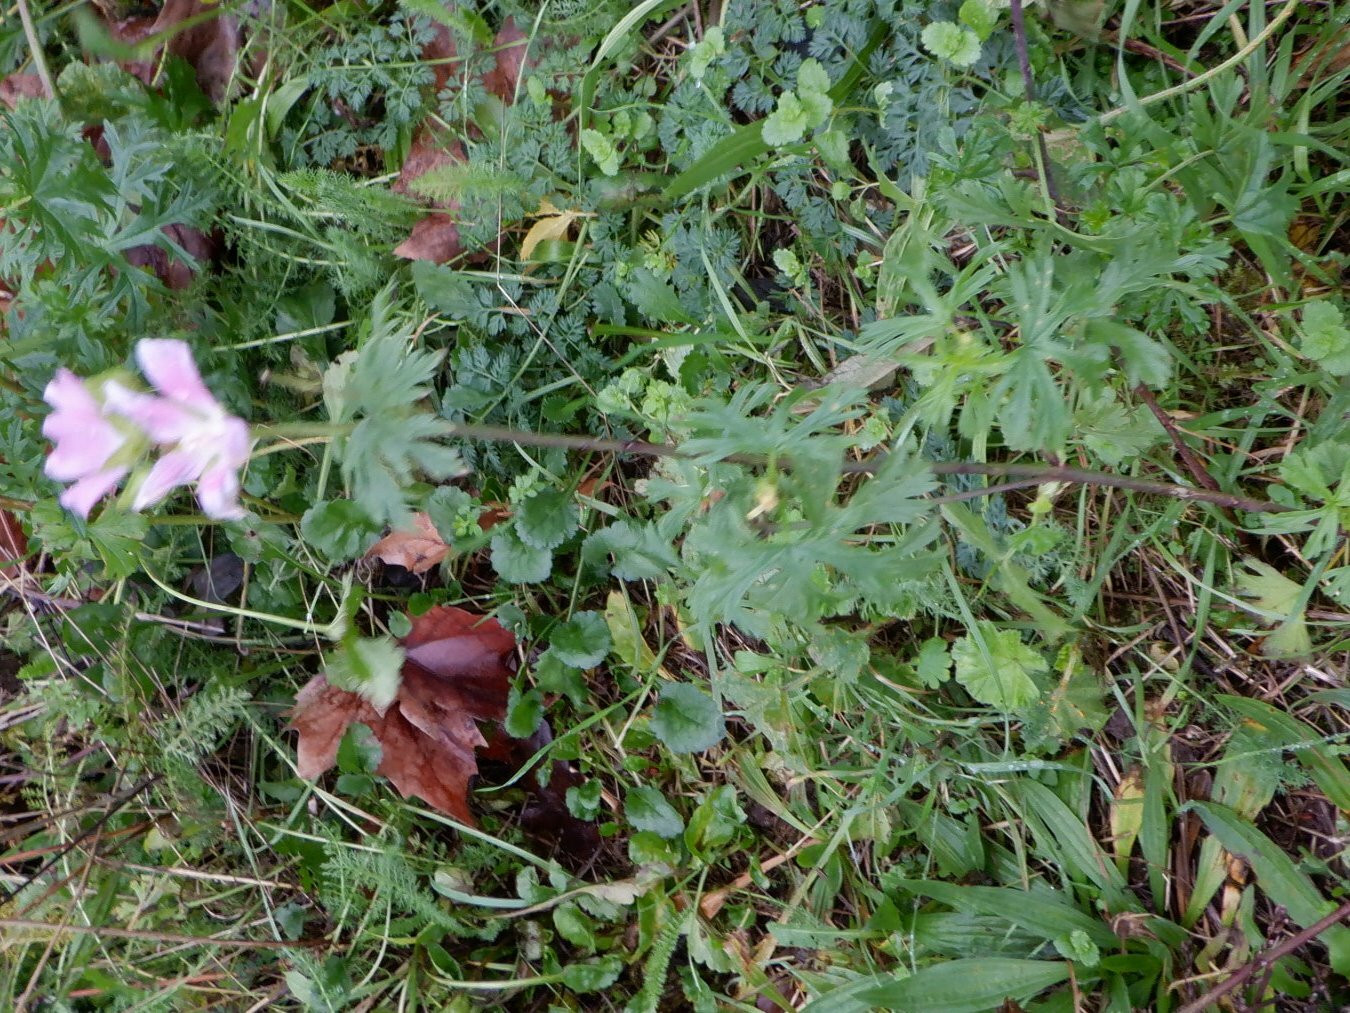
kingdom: Plantae
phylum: Tracheophyta
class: Magnoliopsida
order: Malvales
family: Malvaceae
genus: Malva
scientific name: Malva moschata
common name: Musk mallow
